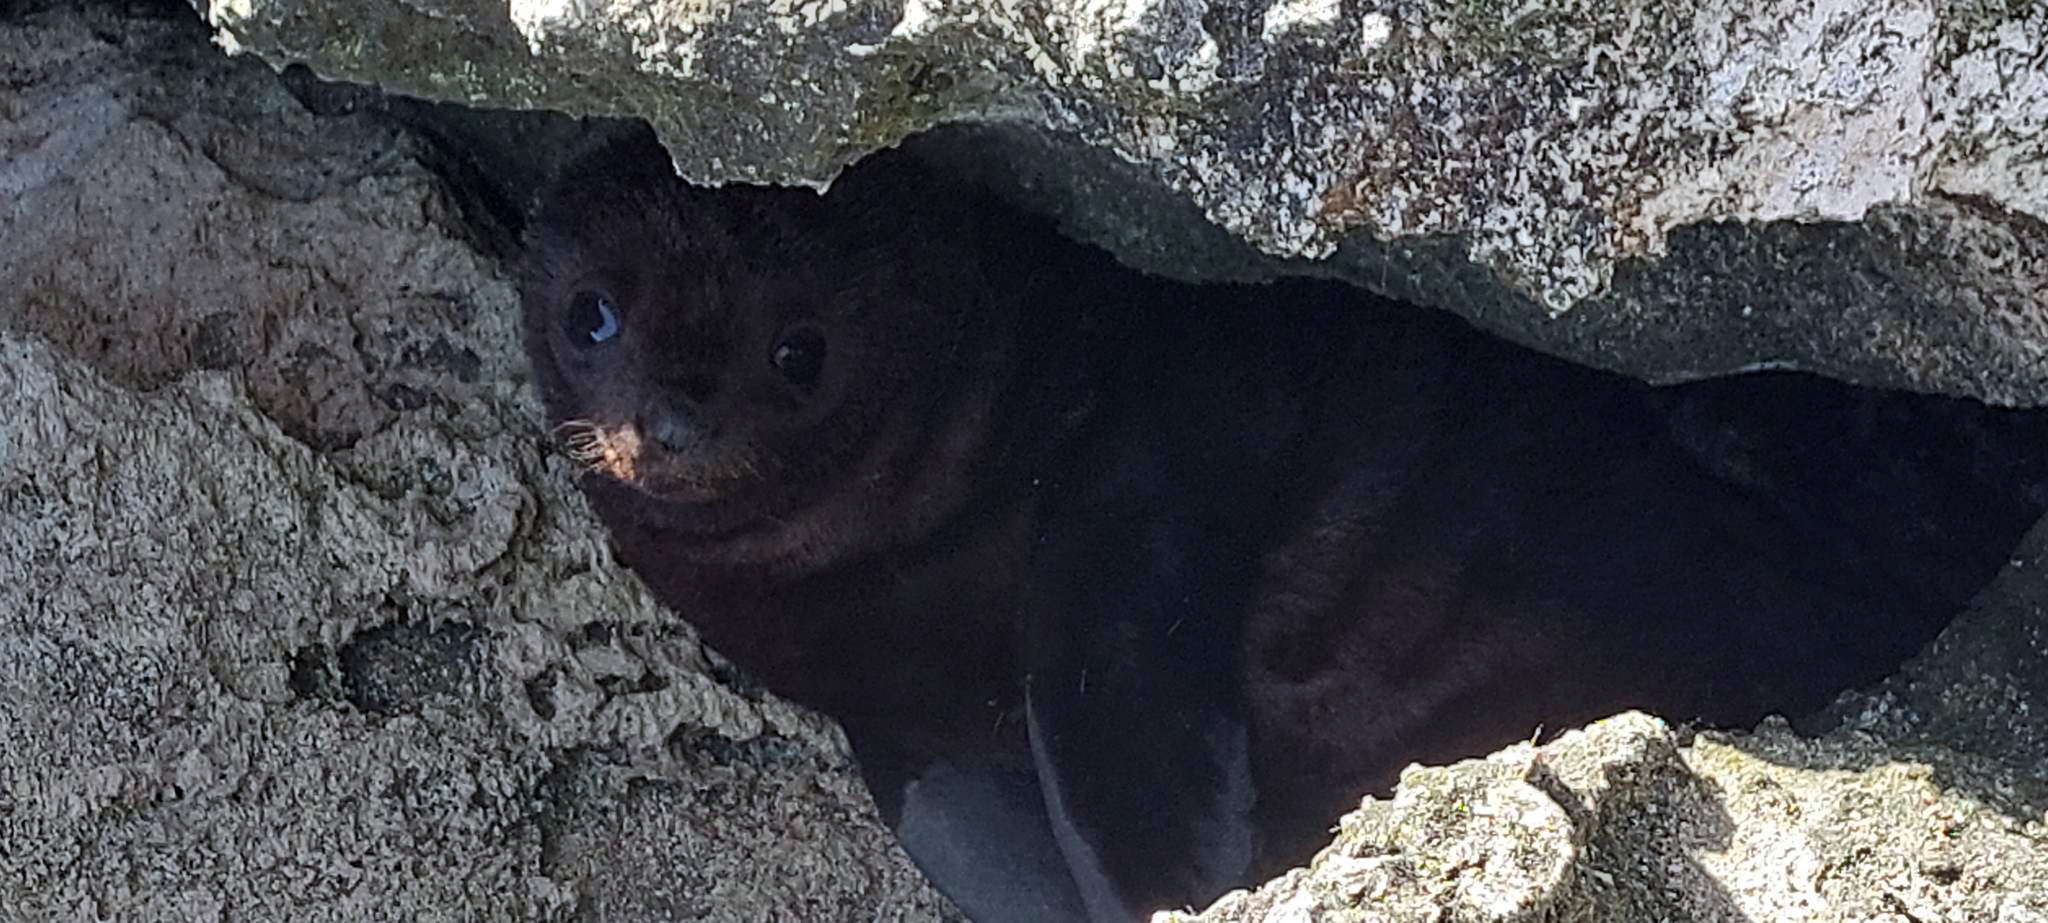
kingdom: Animalia
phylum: Chordata
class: Mammalia
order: Carnivora
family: Otariidae
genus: Arctocephalus
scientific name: Arctocephalus forsteri
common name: New zealand fur seal
